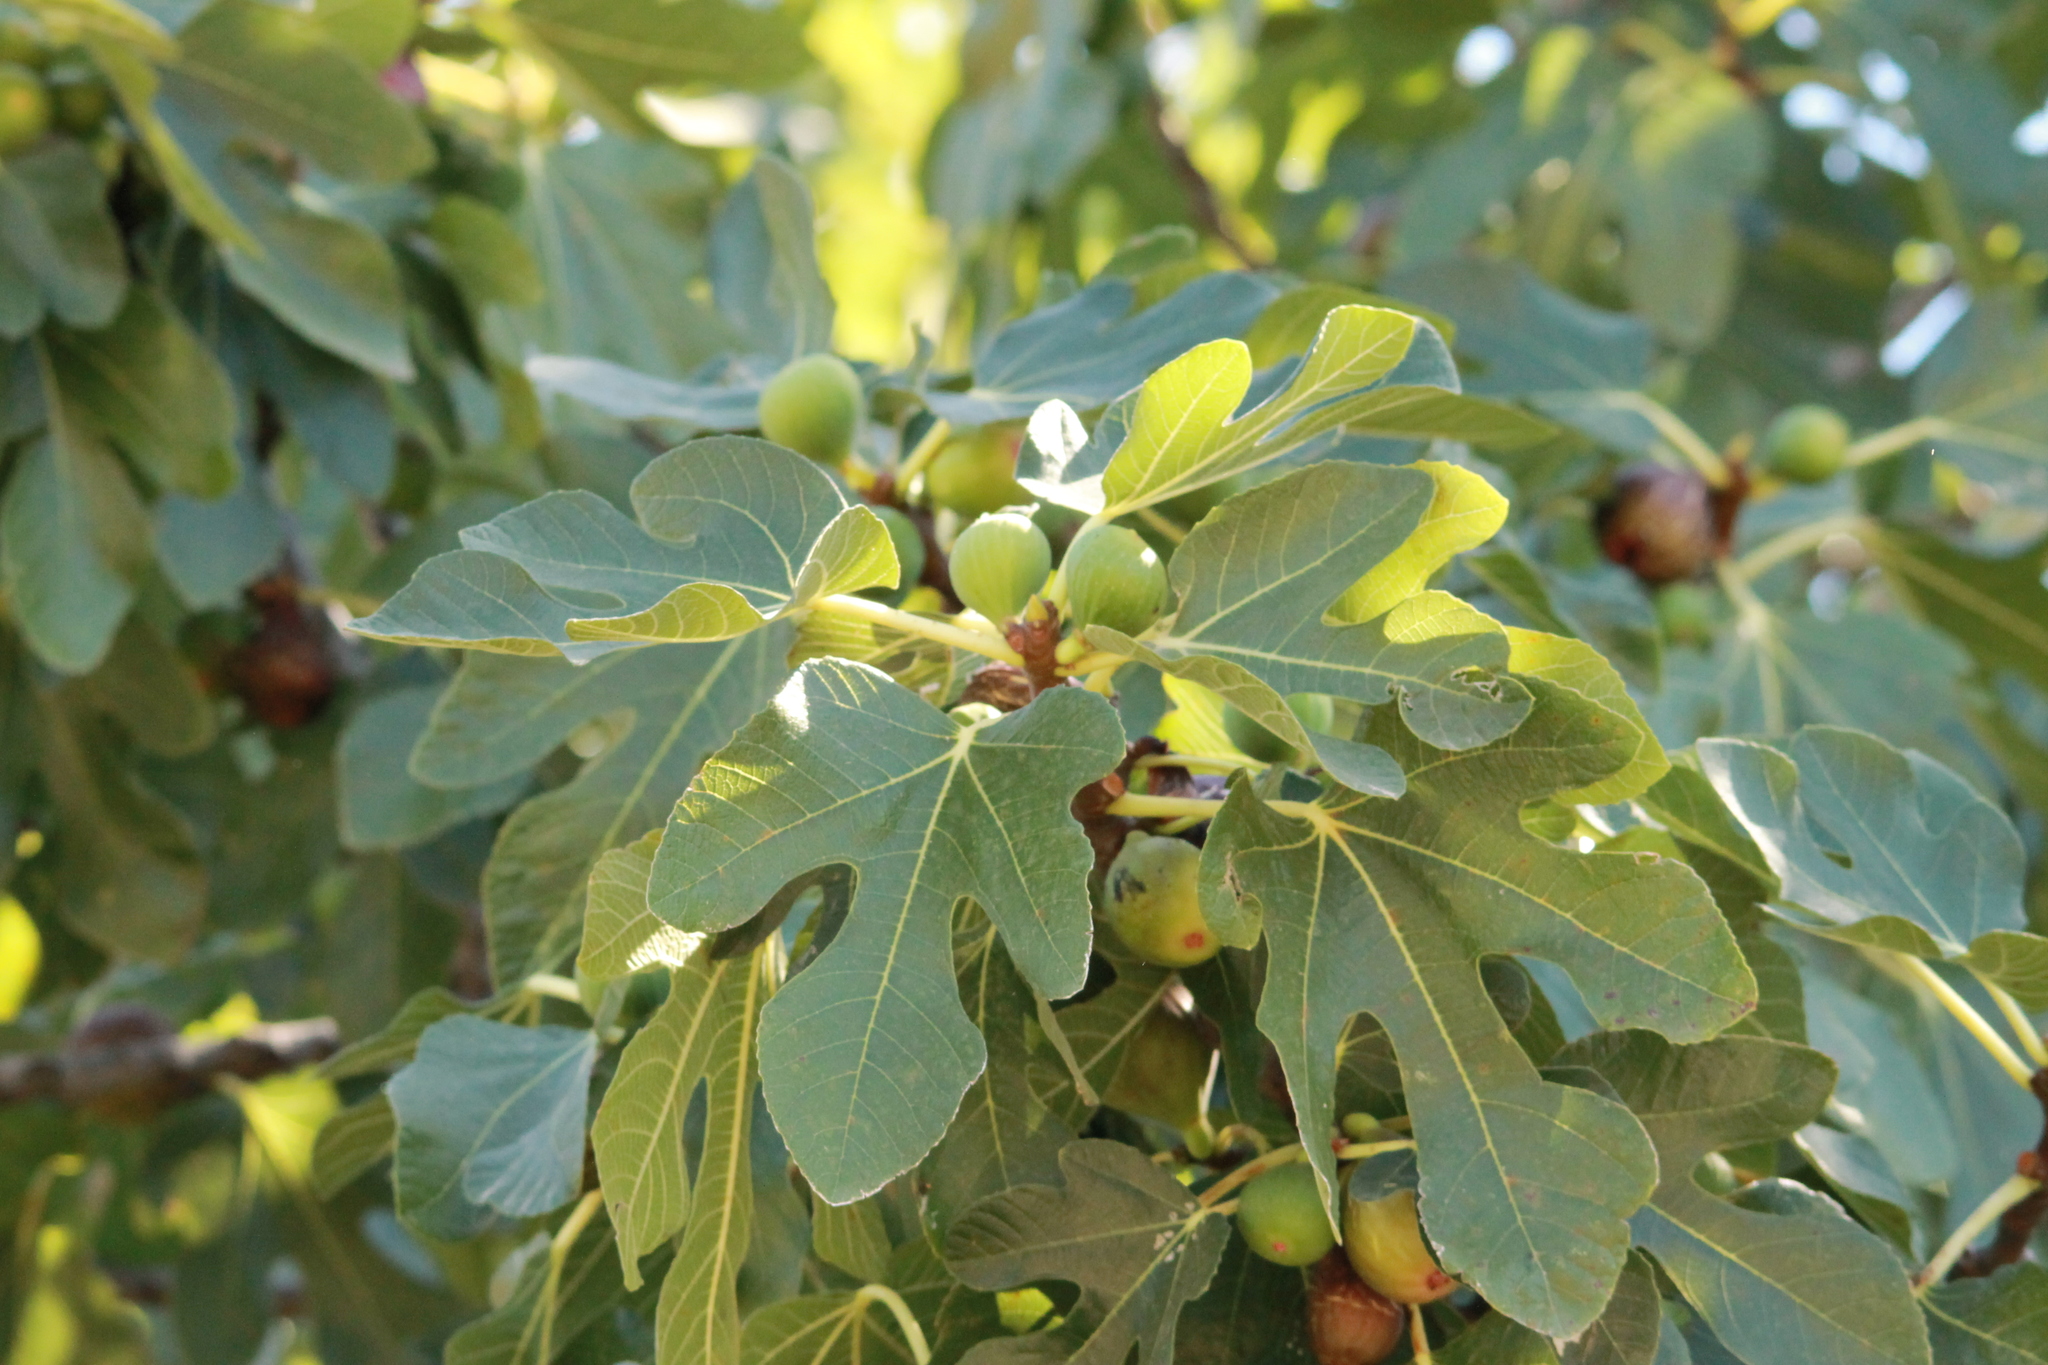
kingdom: Plantae
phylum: Tracheophyta
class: Magnoliopsida
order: Rosales
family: Moraceae
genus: Ficus
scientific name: Ficus carica
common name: Fig
